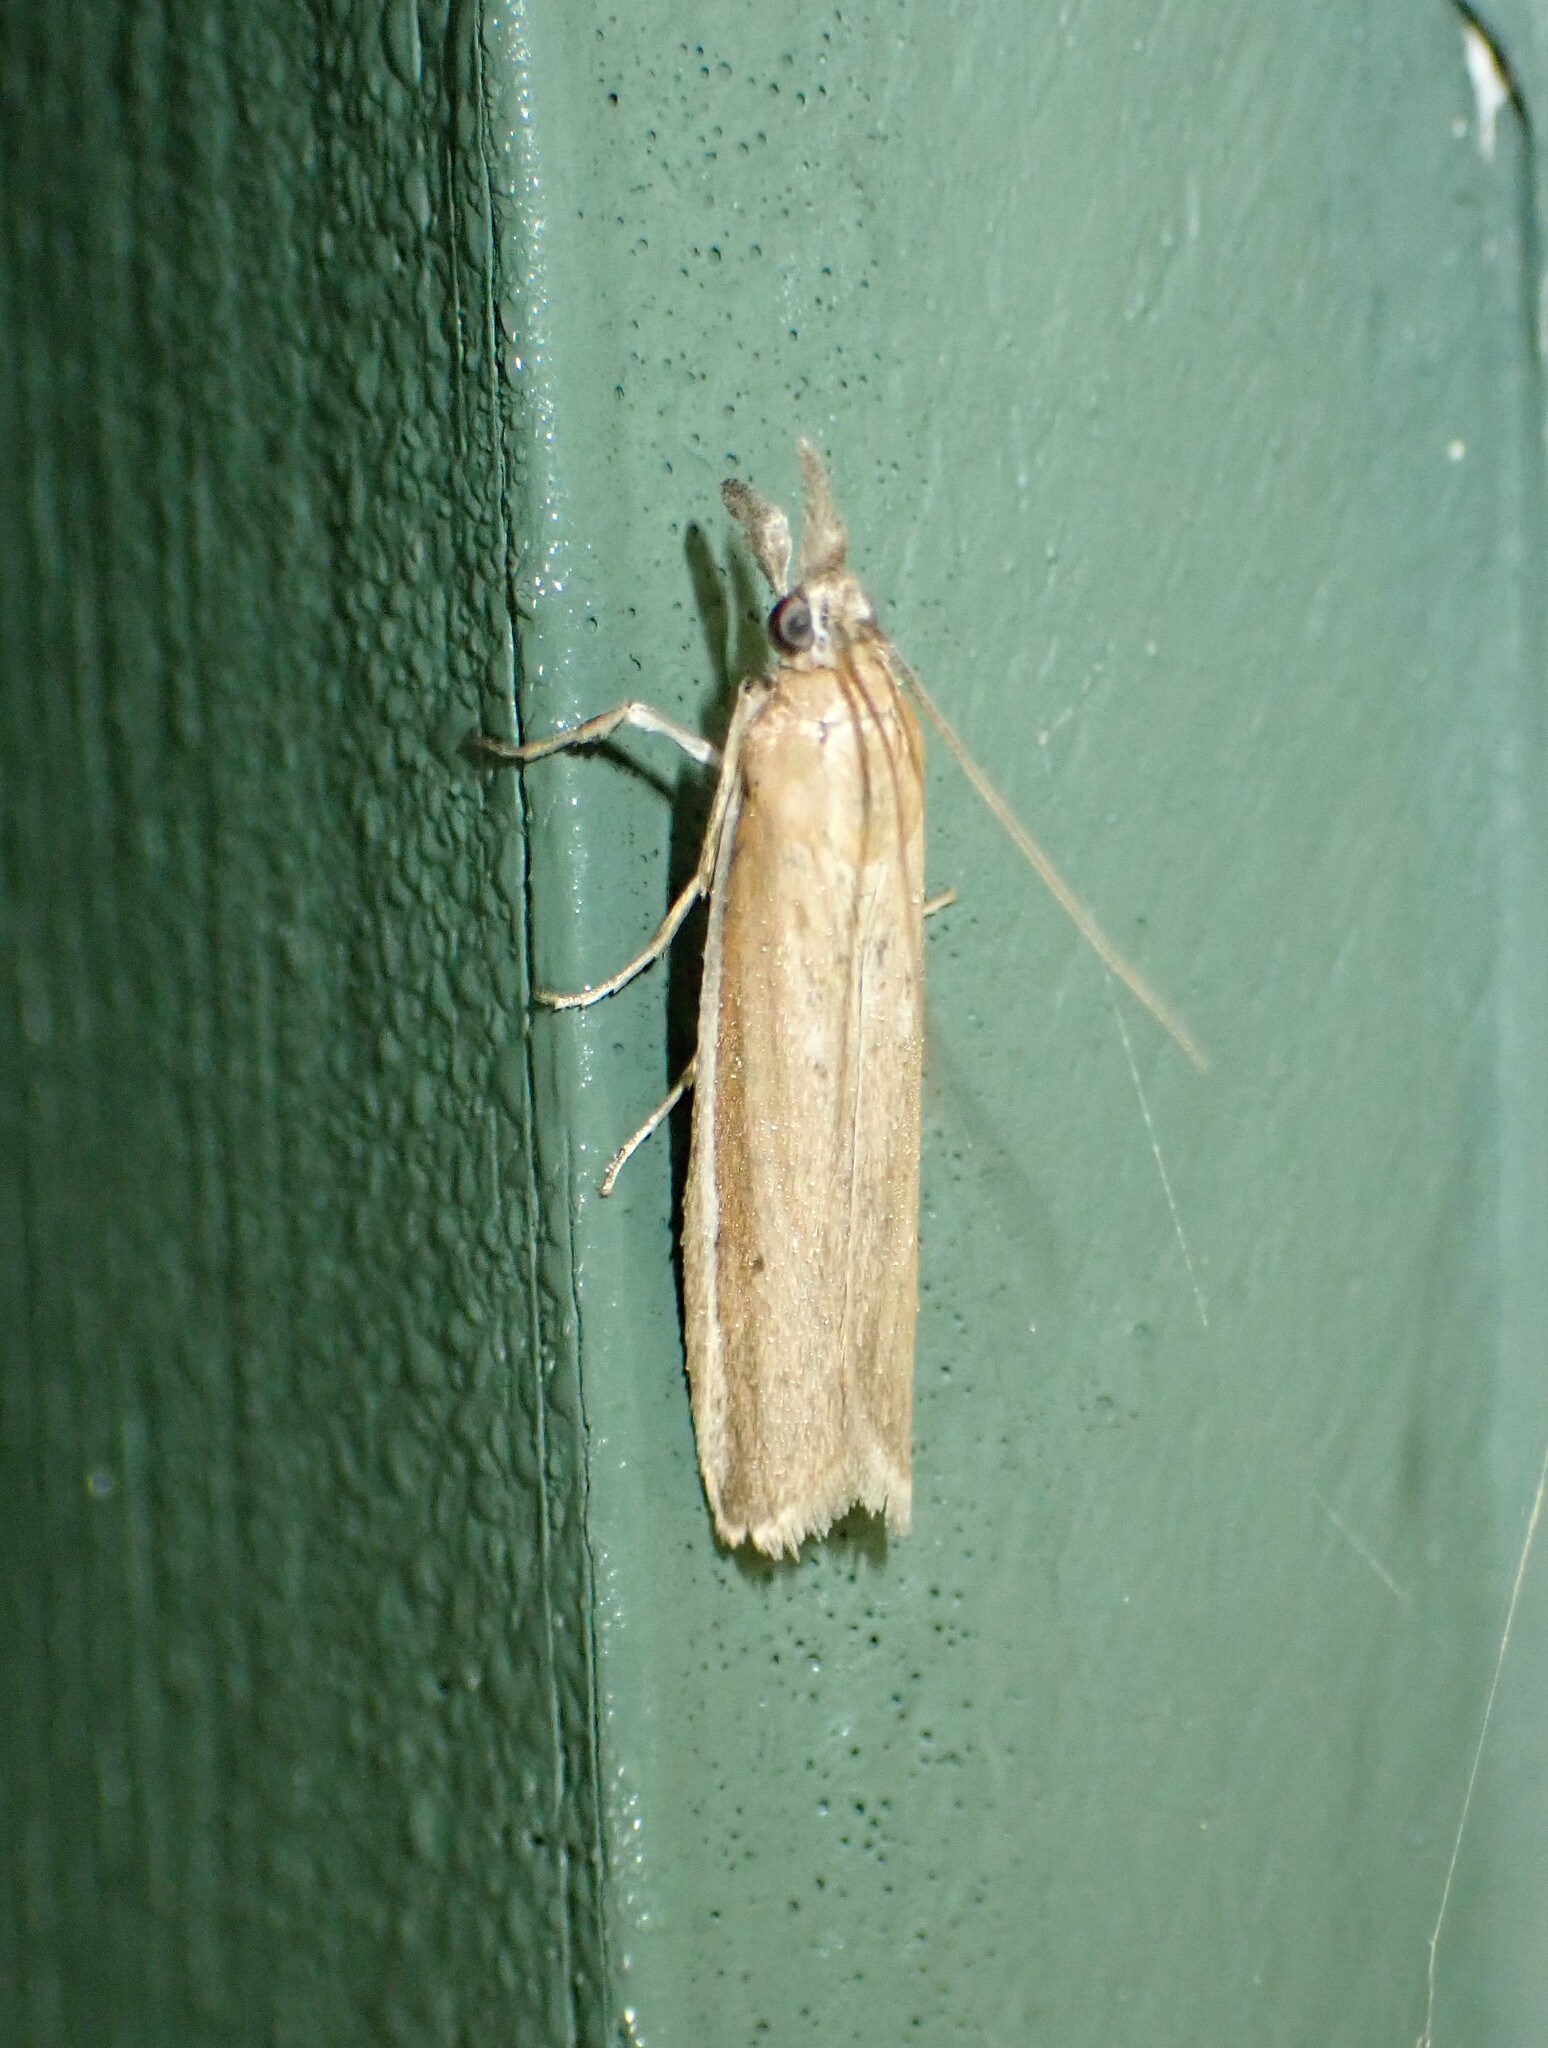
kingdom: Animalia
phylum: Arthropoda
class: Insecta
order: Lepidoptera
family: Pyralidae
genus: Pima
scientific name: Pima albiplagiatella
